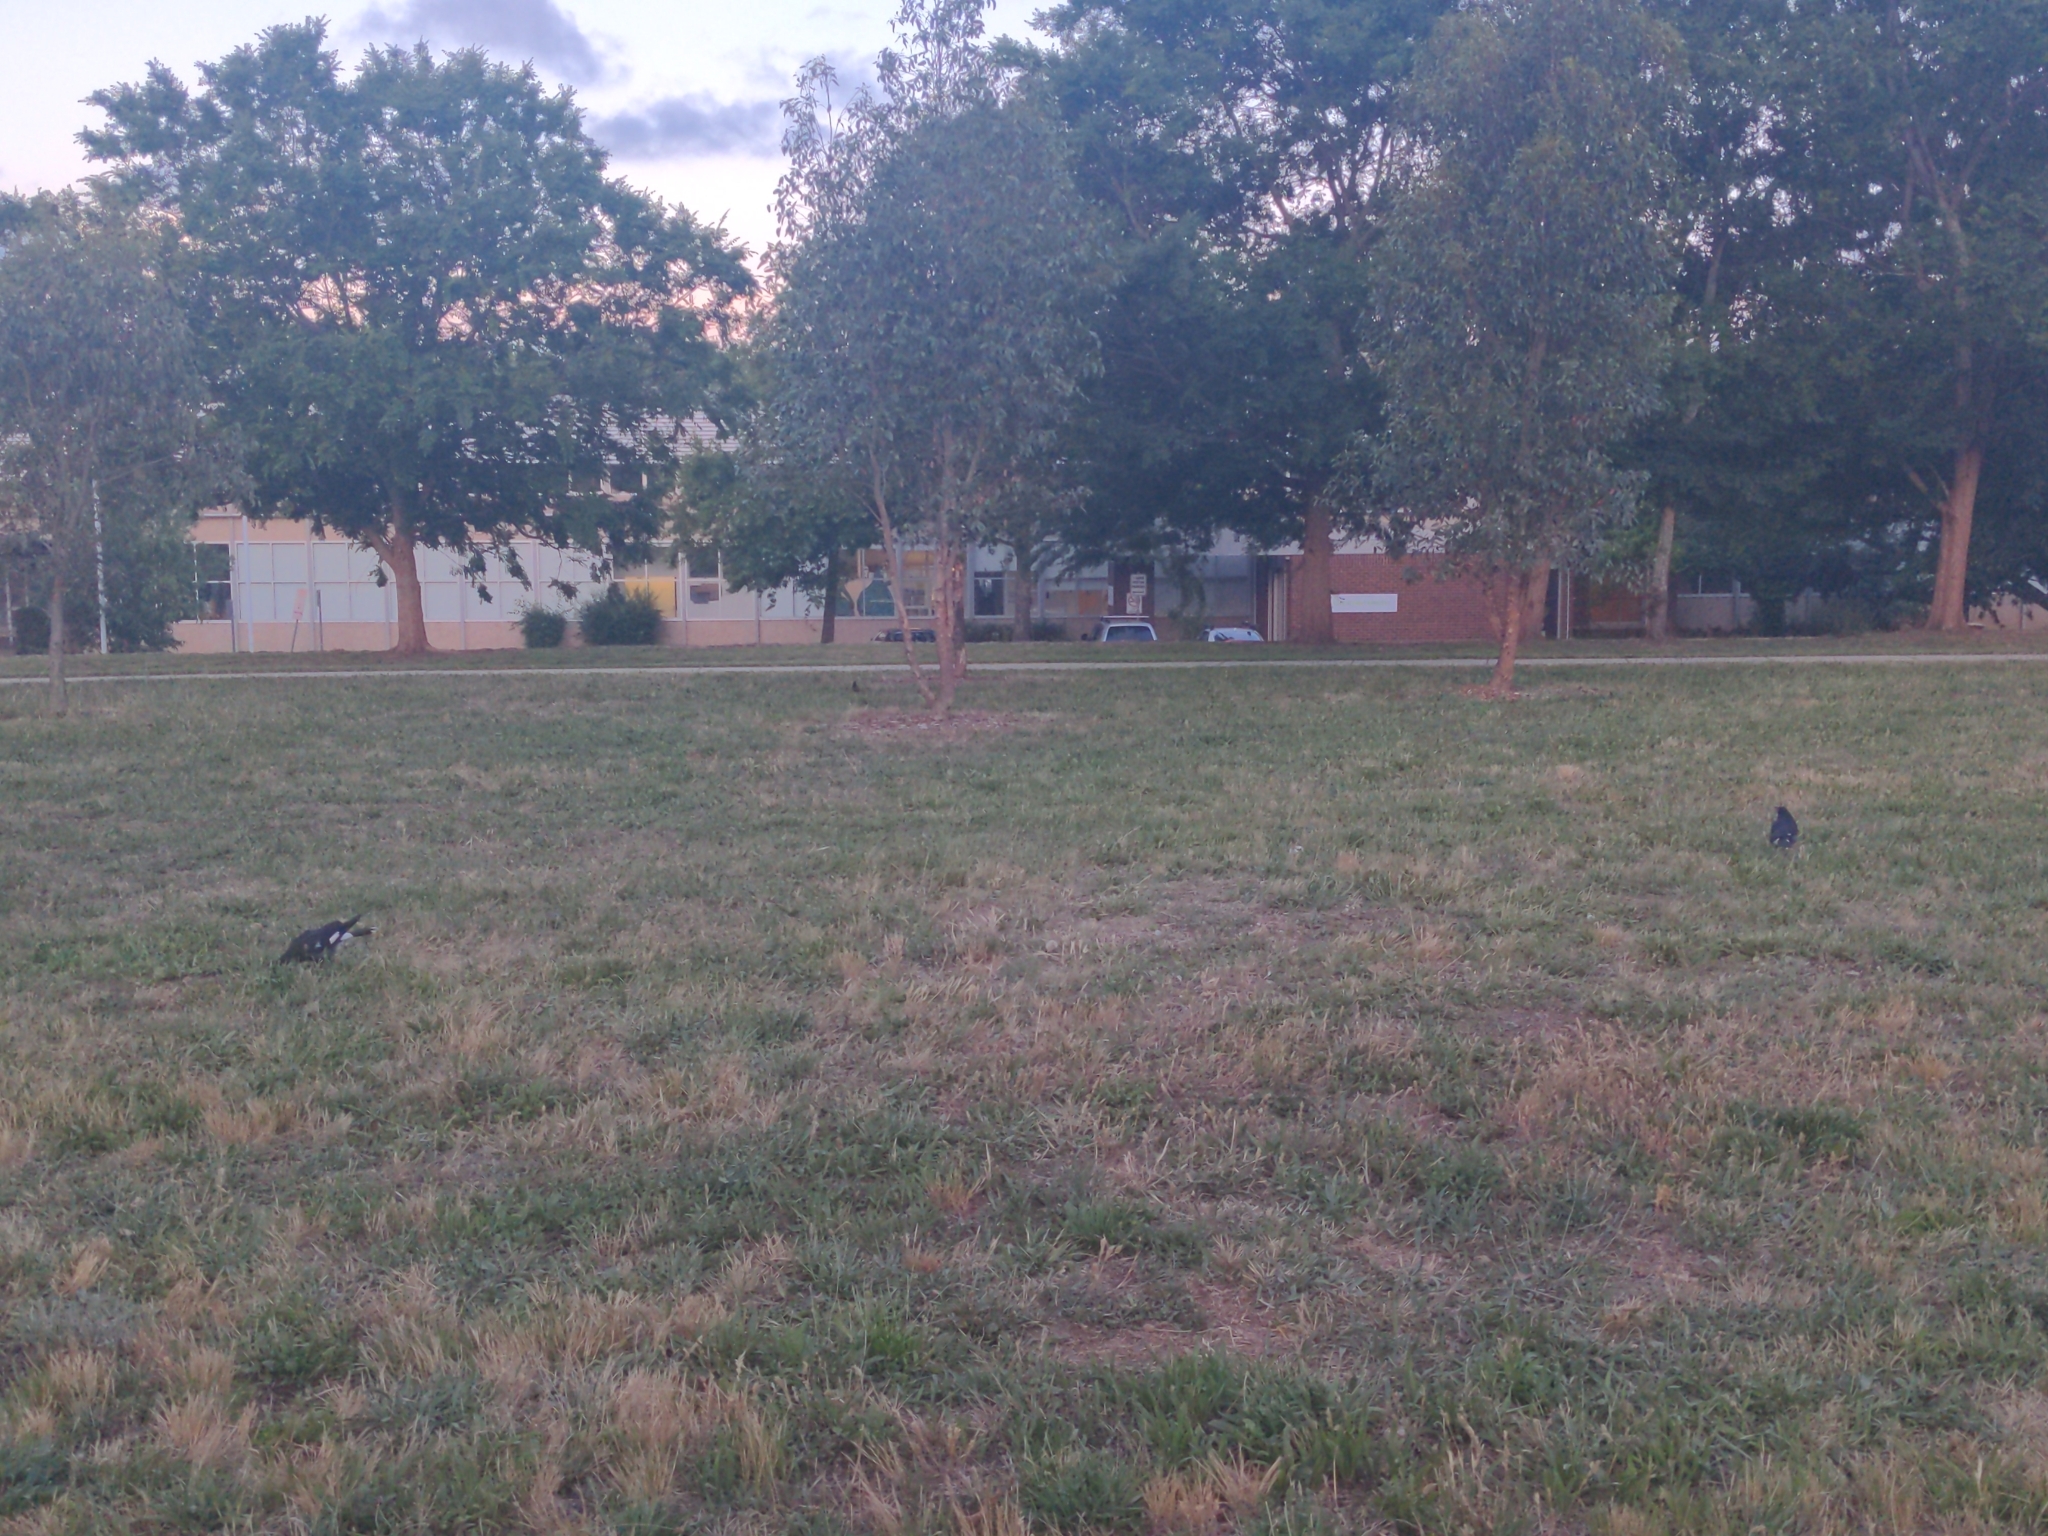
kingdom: Animalia
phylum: Chordata
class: Aves
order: Passeriformes
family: Cracticidae
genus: Strepera
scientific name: Strepera graculina
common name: Pied currawong
